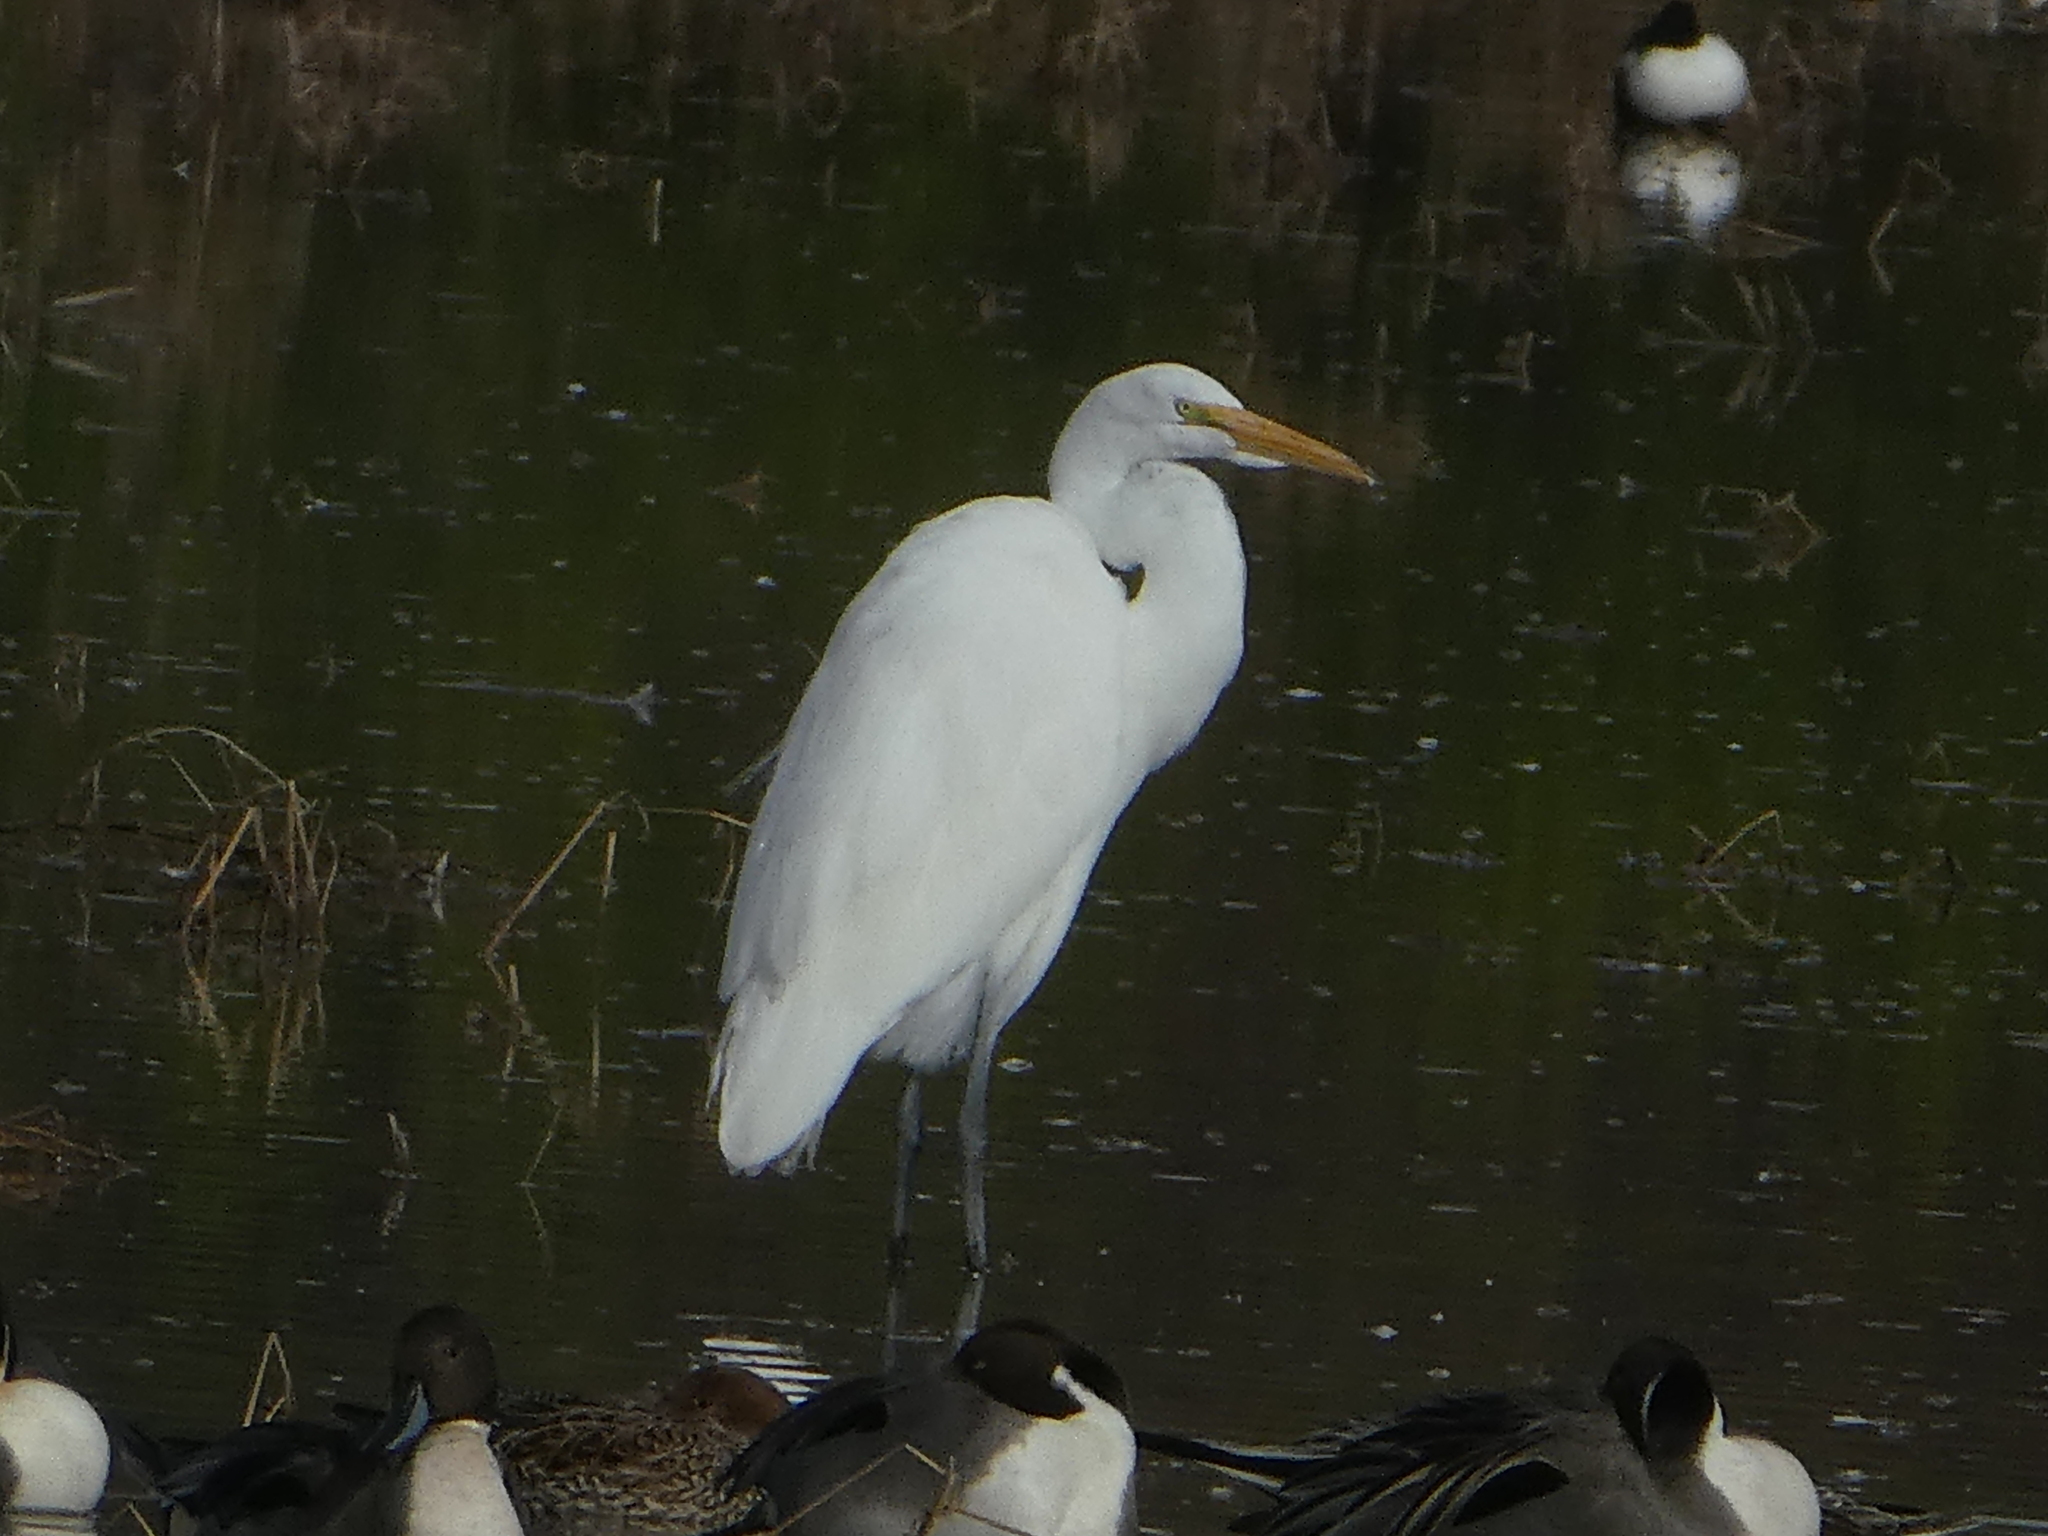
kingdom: Animalia
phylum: Chordata
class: Aves
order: Pelecaniformes
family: Ardeidae
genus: Ardea
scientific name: Ardea alba
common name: Great egret
